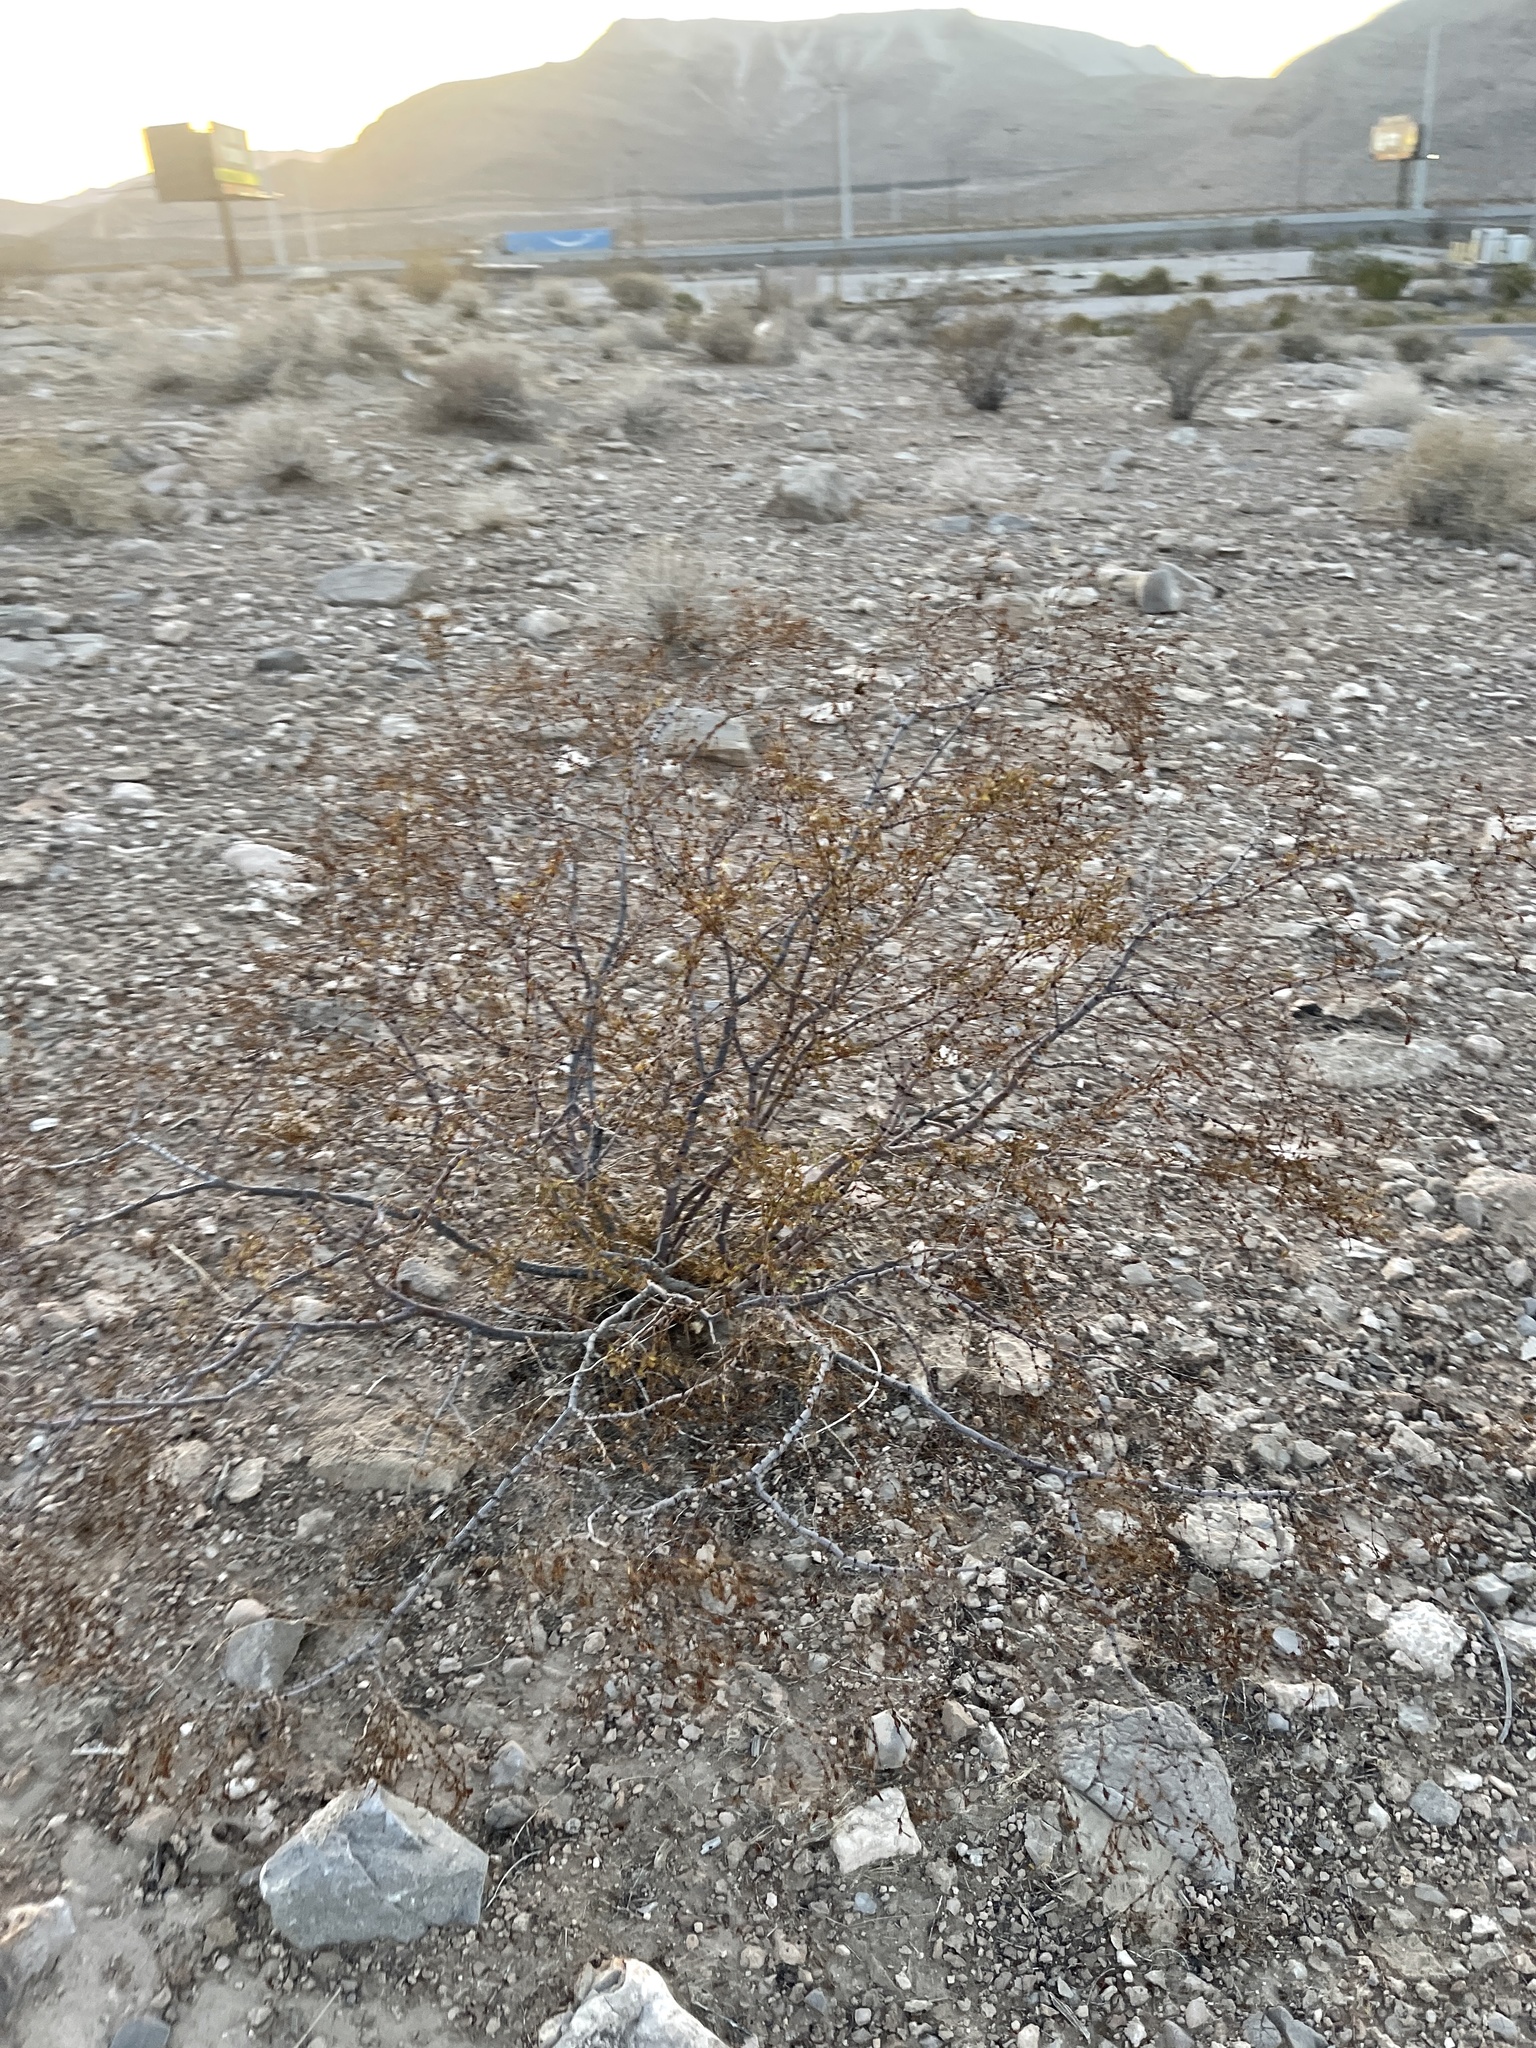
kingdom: Plantae
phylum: Tracheophyta
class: Magnoliopsida
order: Zygophyllales
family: Zygophyllaceae
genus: Larrea
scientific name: Larrea tridentata
